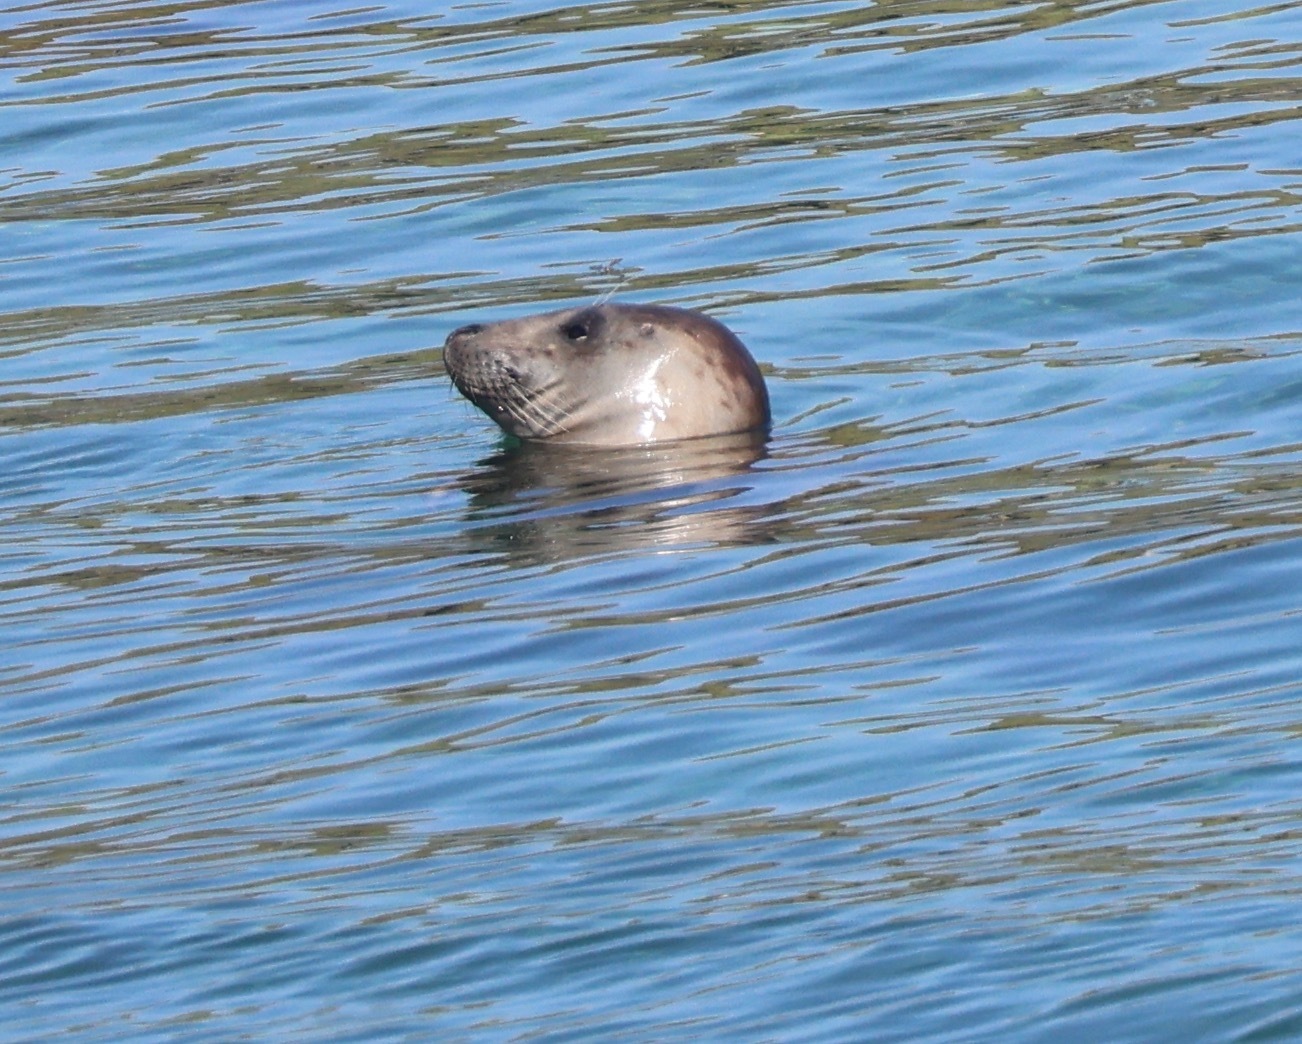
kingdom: Animalia
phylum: Chordata
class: Mammalia
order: Carnivora
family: Phocidae
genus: Halichoerus
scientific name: Halichoerus grypus
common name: Grey seal
